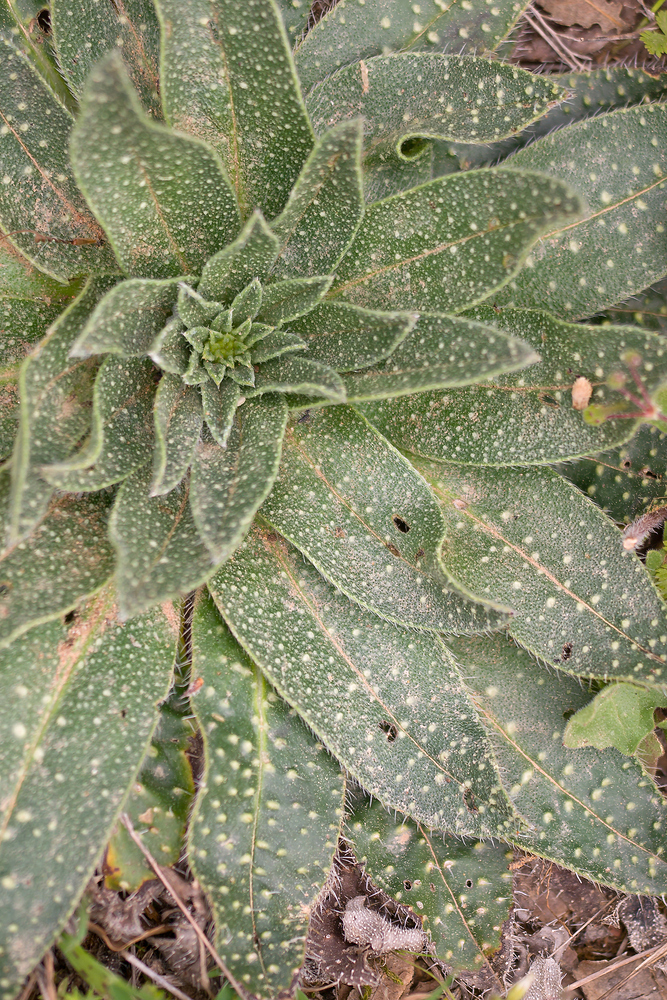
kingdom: Plantae
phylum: Tracheophyta
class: Magnoliopsida
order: Boraginales
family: Boraginaceae
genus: Echium
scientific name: Echium asperrimum
